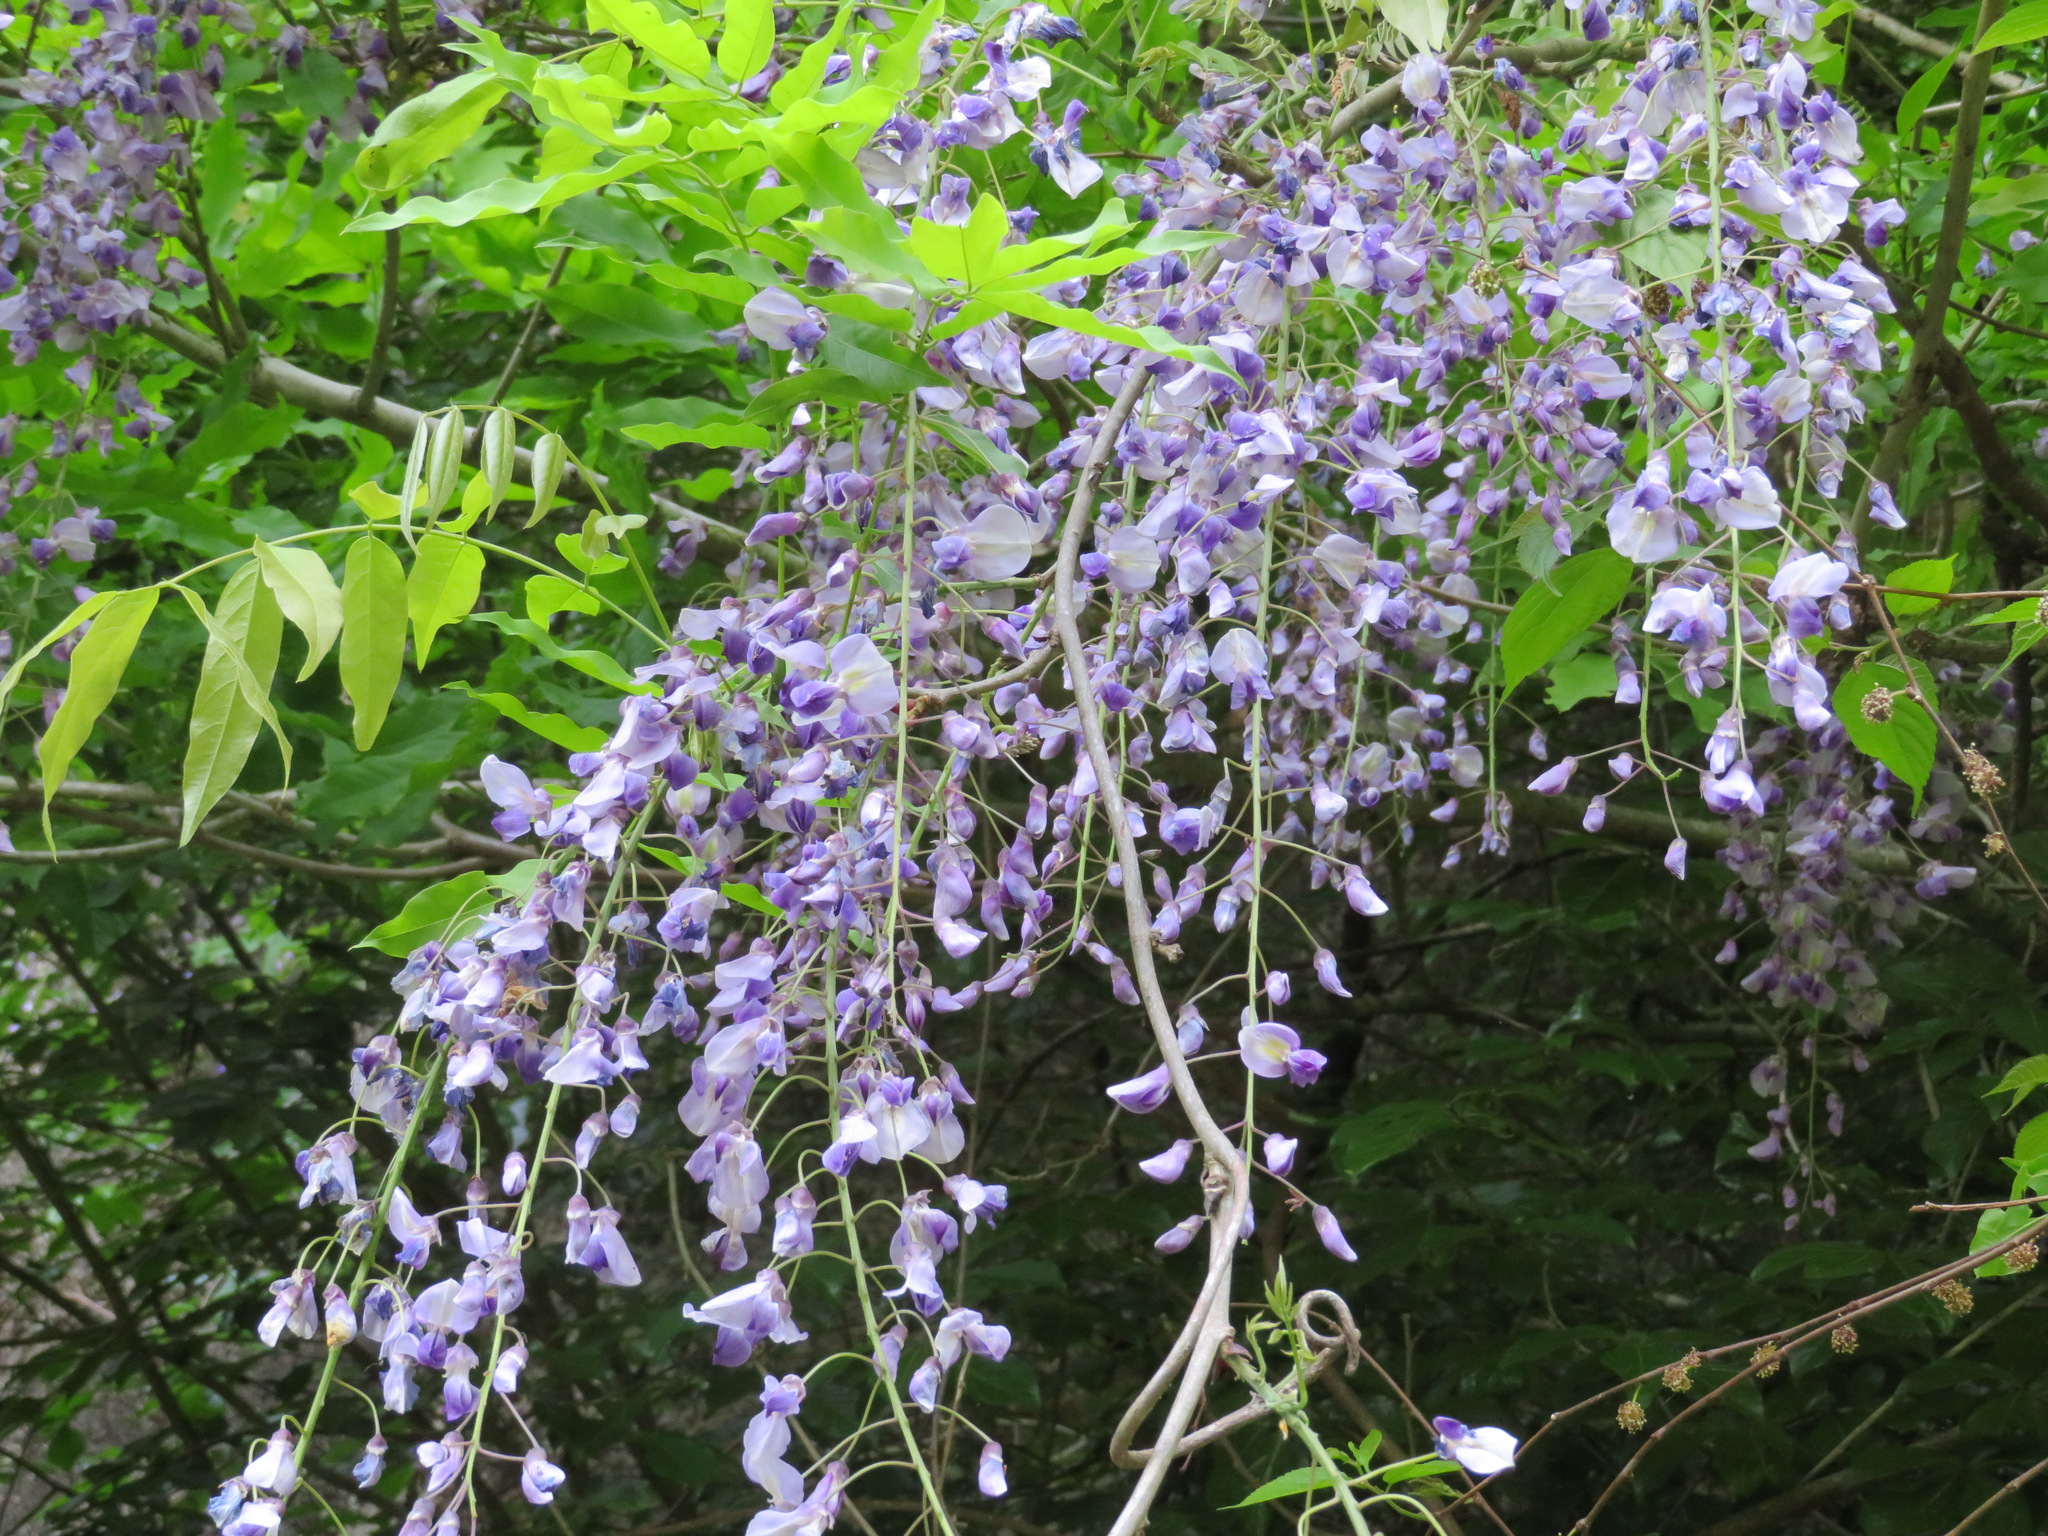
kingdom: Plantae
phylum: Tracheophyta
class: Magnoliopsida
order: Fabales
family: Fabaceae
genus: Wisteria
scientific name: Wisteria floribunda
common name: Japanese wisteria
